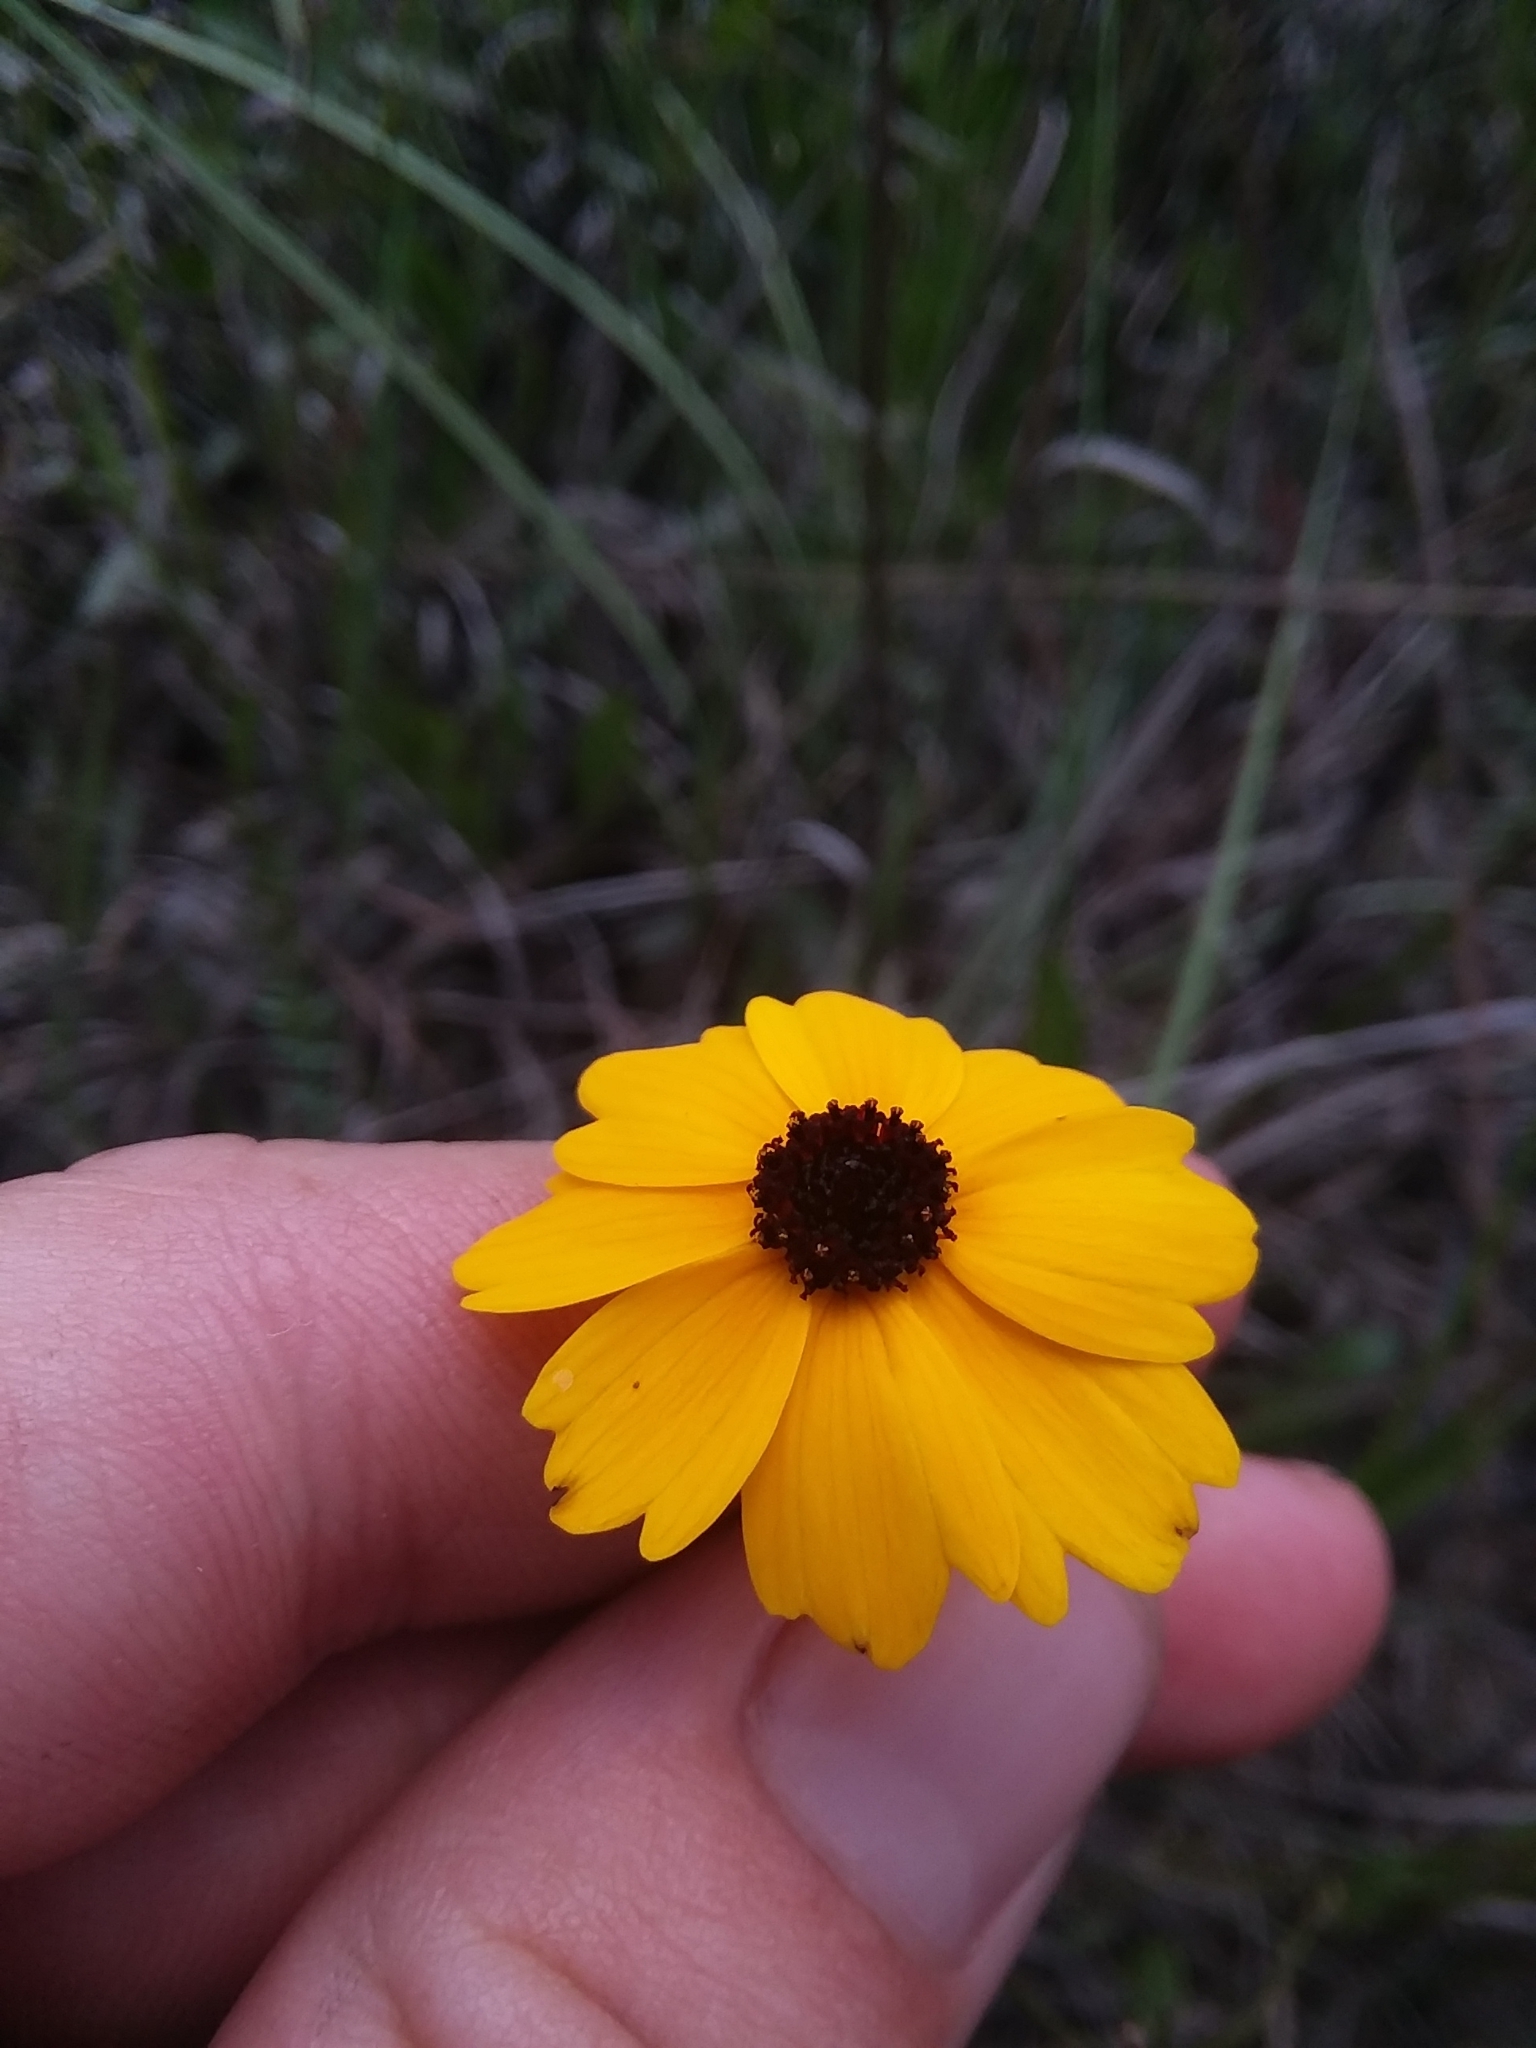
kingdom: Plantae
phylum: Tracheophyta
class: Magnoliopsida
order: Asterales
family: Asteraceae
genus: Coreopsis
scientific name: Coreopsis gladiata
